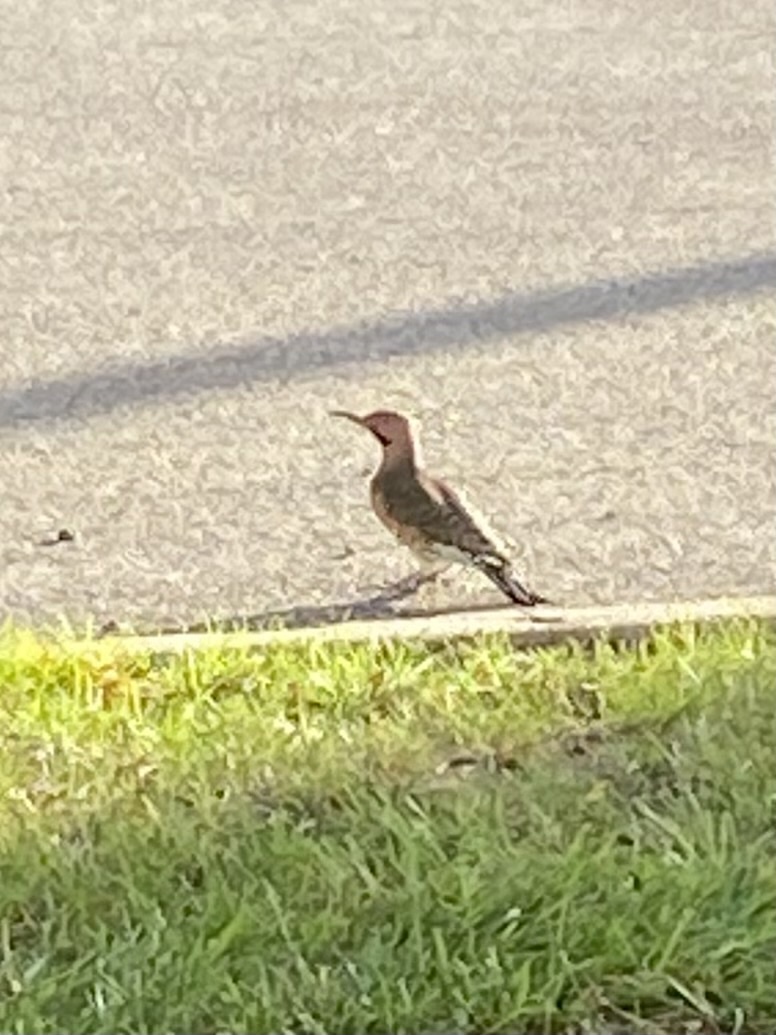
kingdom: Animalia
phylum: Chordata
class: Aves
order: Piciformes
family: Picidae
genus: Colaptes
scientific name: Colaptes auratus
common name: Northern flicker
